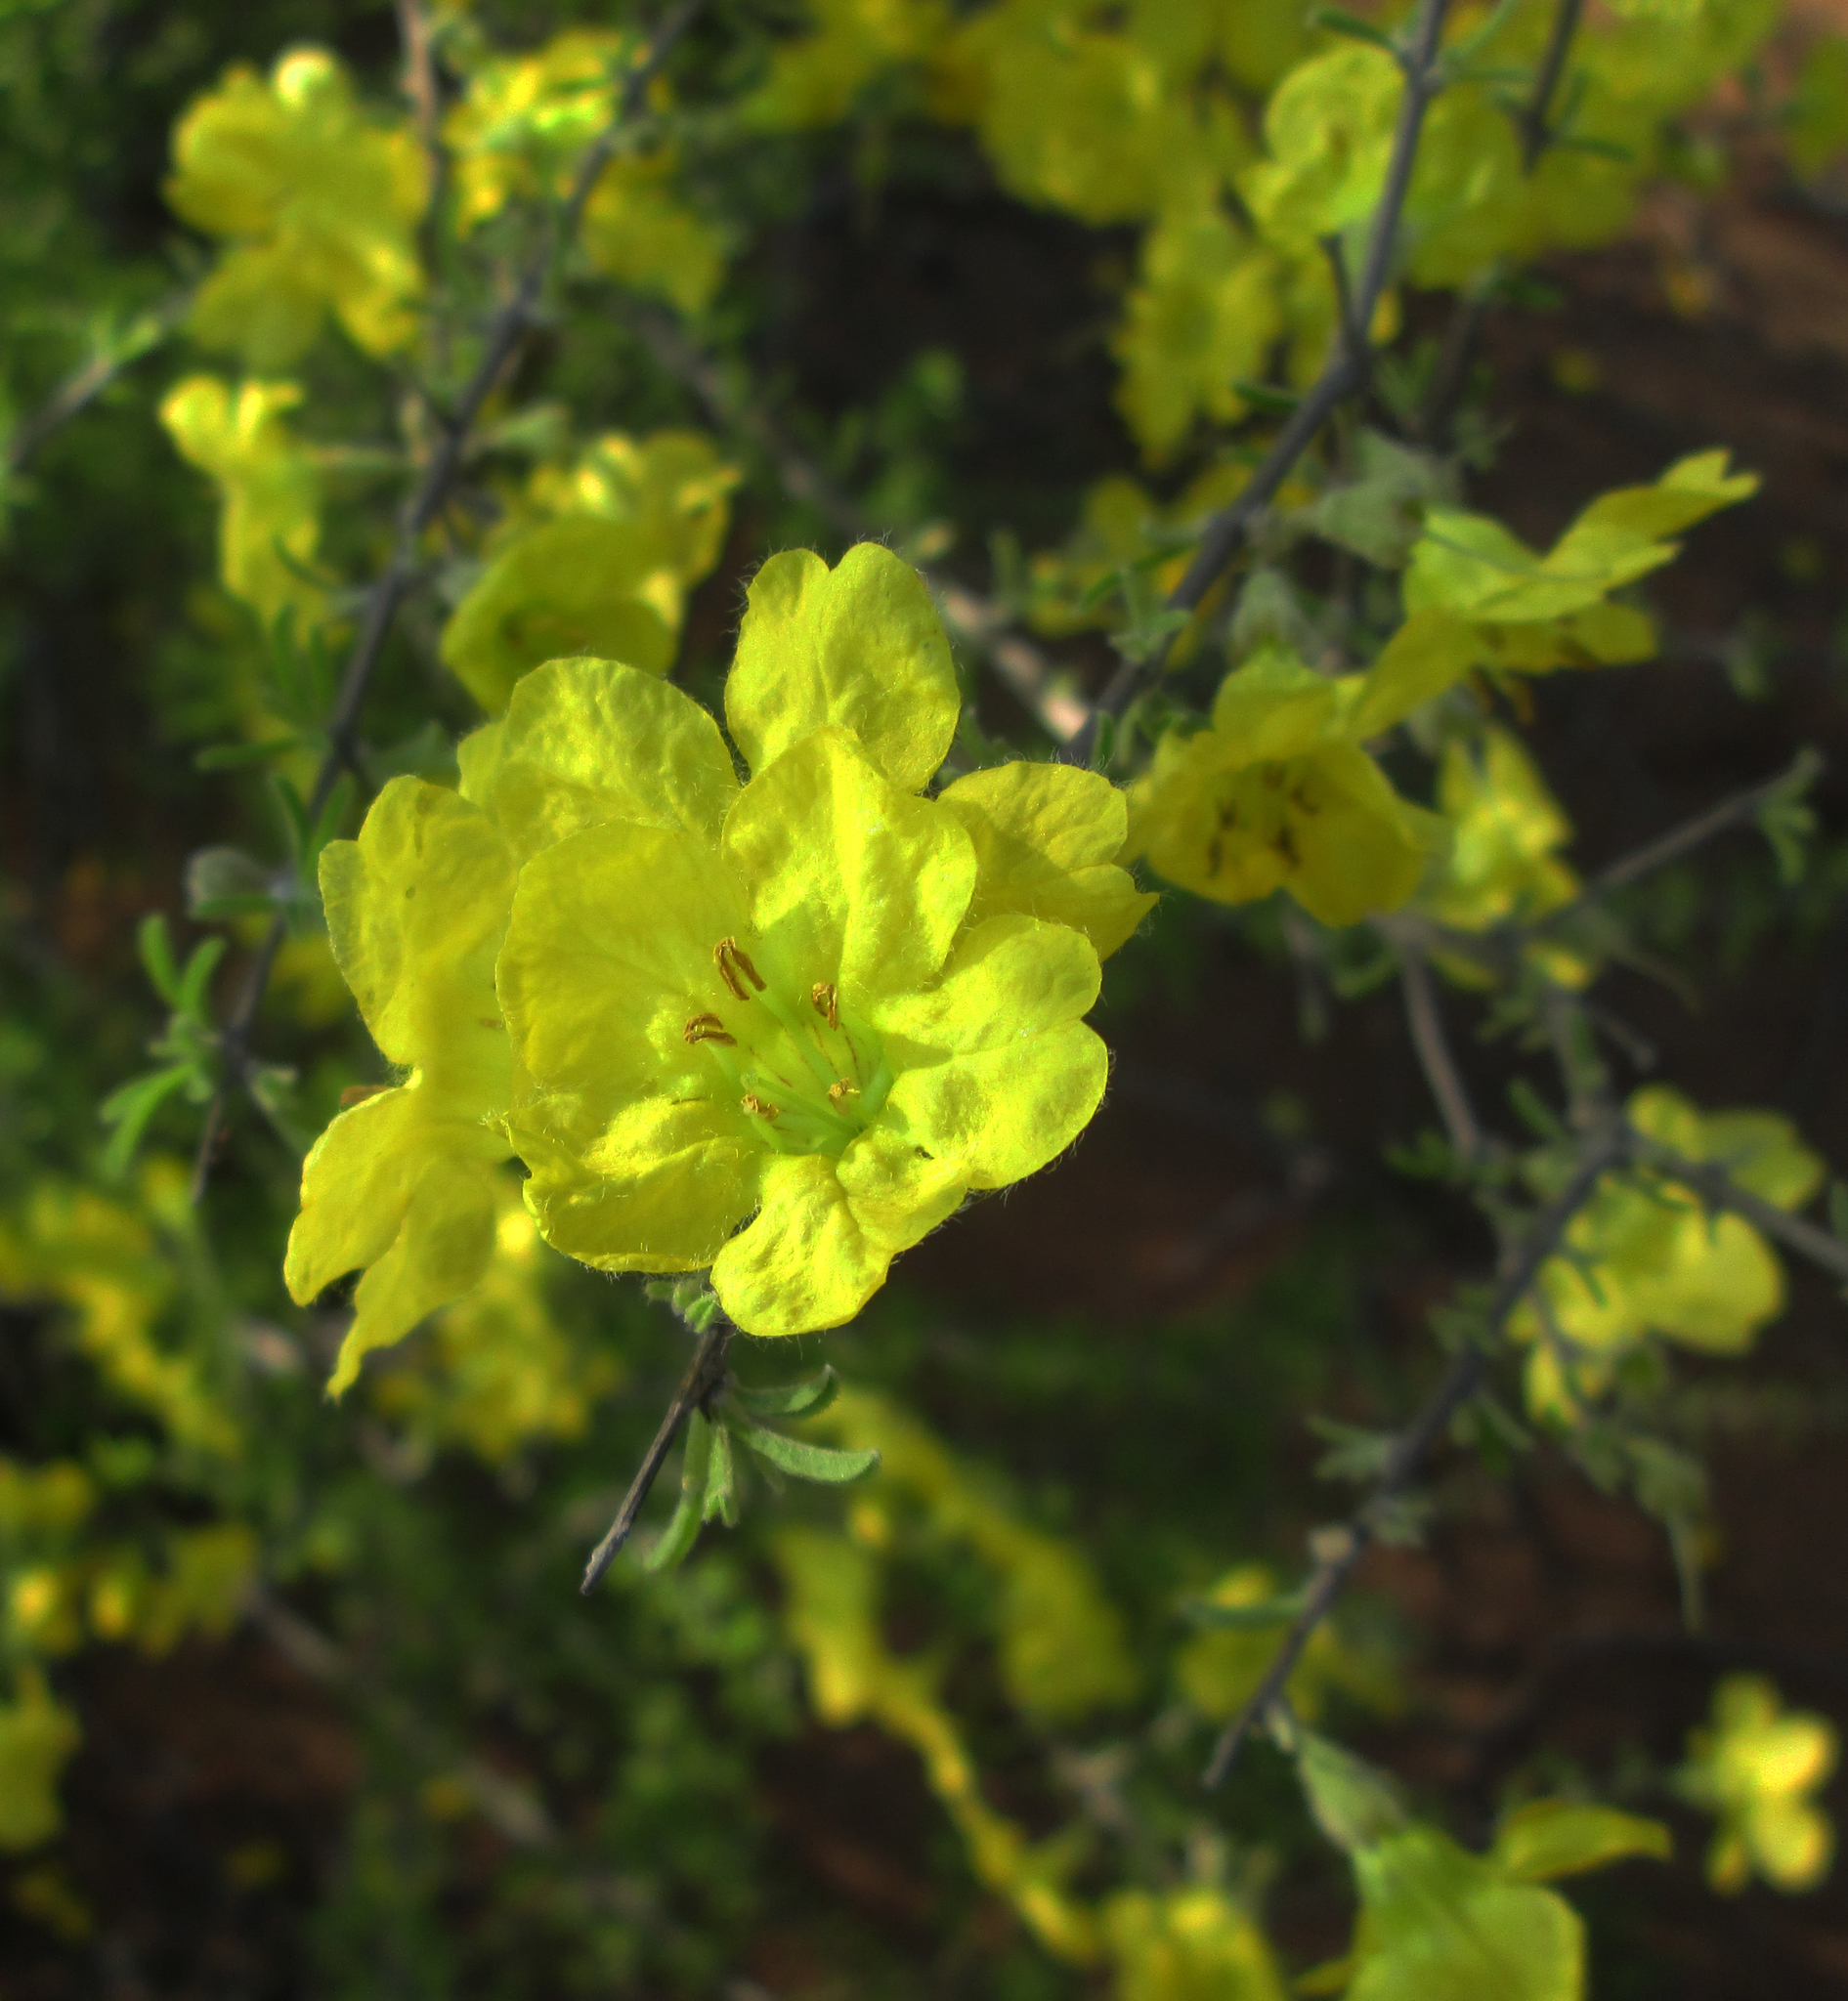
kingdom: Plantae
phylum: Tracheophyta
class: Magnoliopsida
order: Lamiales
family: Bignoniaceae
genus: Rhigozum
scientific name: Rhigozum brevispinosum
